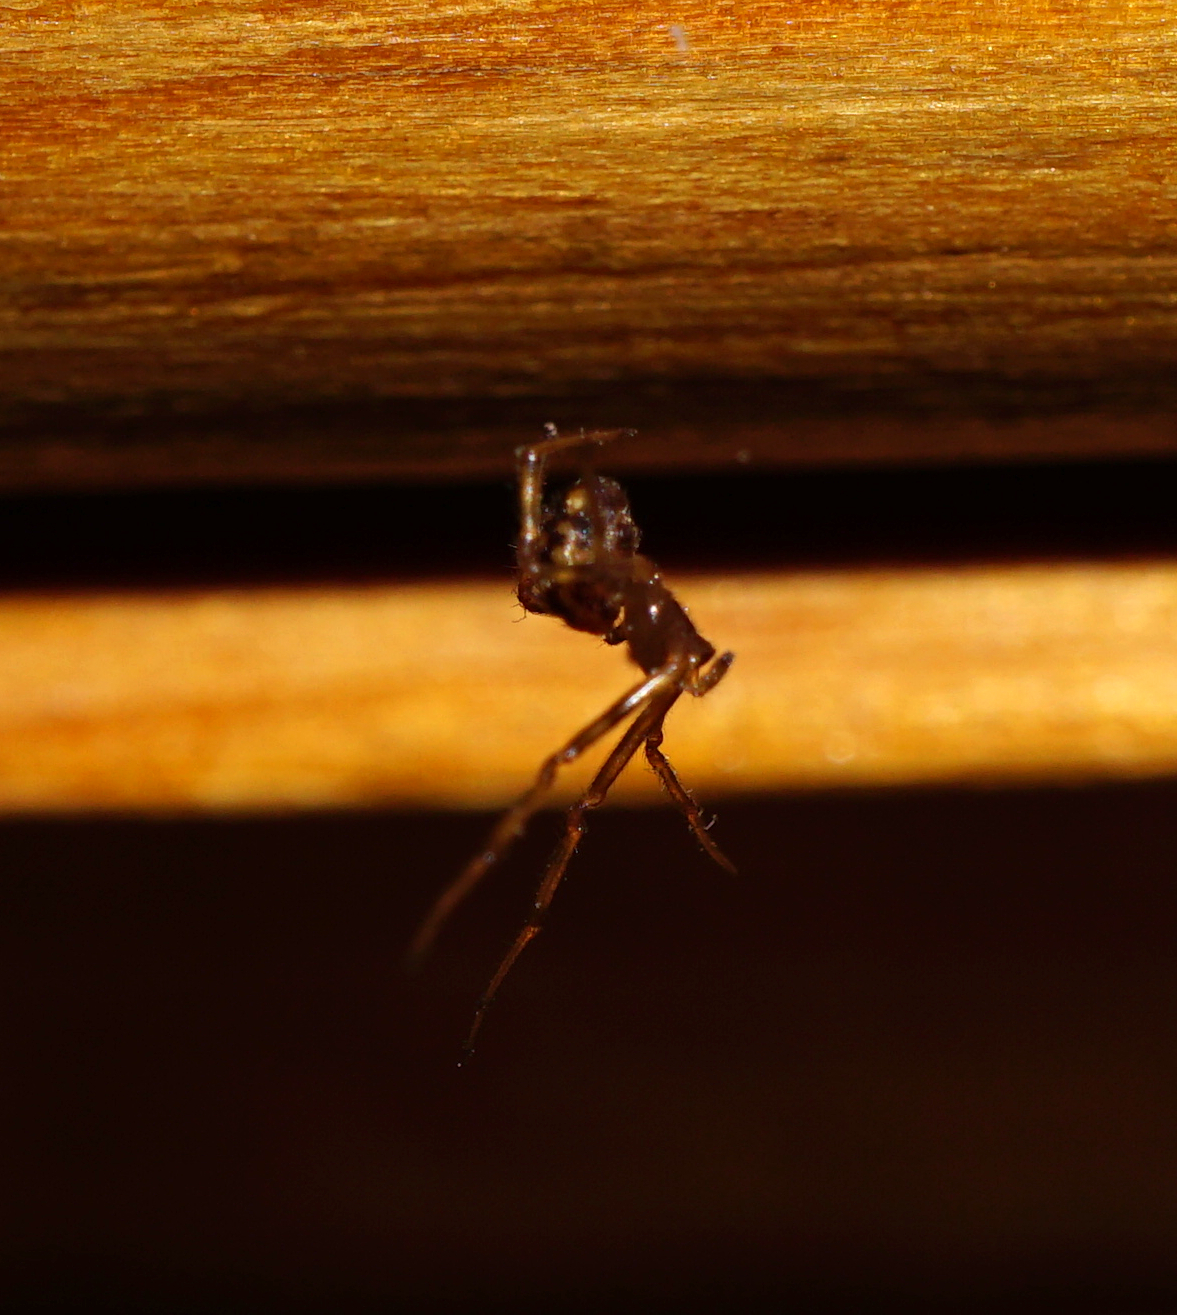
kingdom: Animalia
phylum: Arthropoda
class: Arachnida
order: Araneae
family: Theridiidae
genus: Steatoda
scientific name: Steatoda triangulosa
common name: Triangulate bud spider
